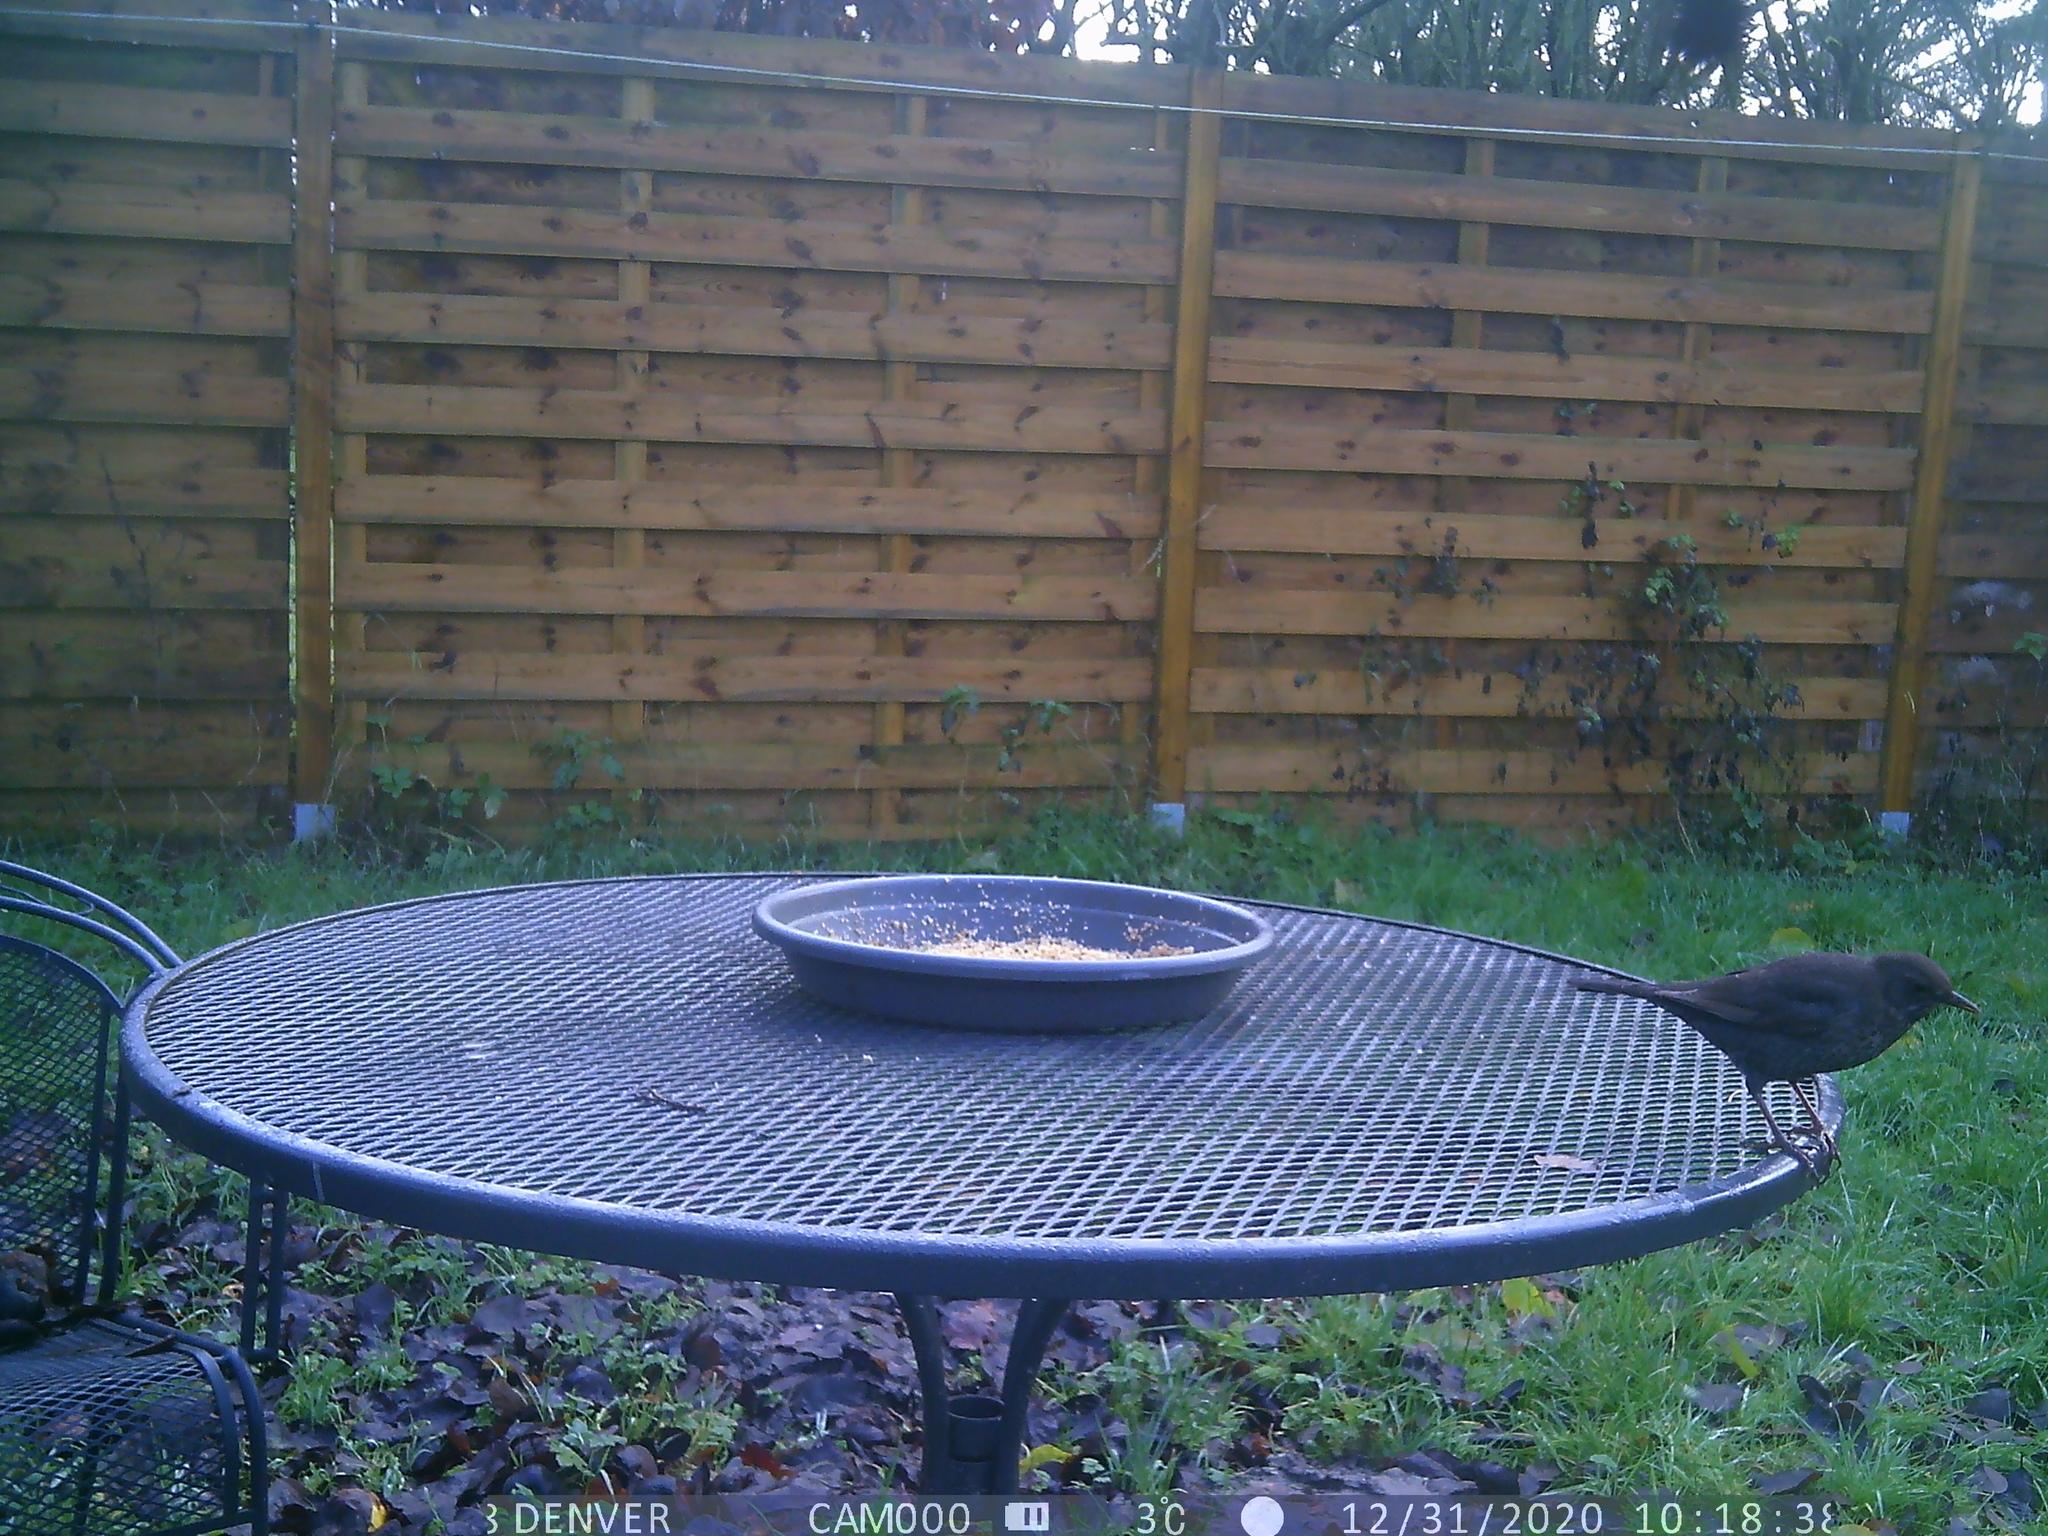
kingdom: Animalia
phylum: Chordata
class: Aves
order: Passeriformes
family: Turdidae
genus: Turdus
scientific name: Turdus merula
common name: Common blackbird
